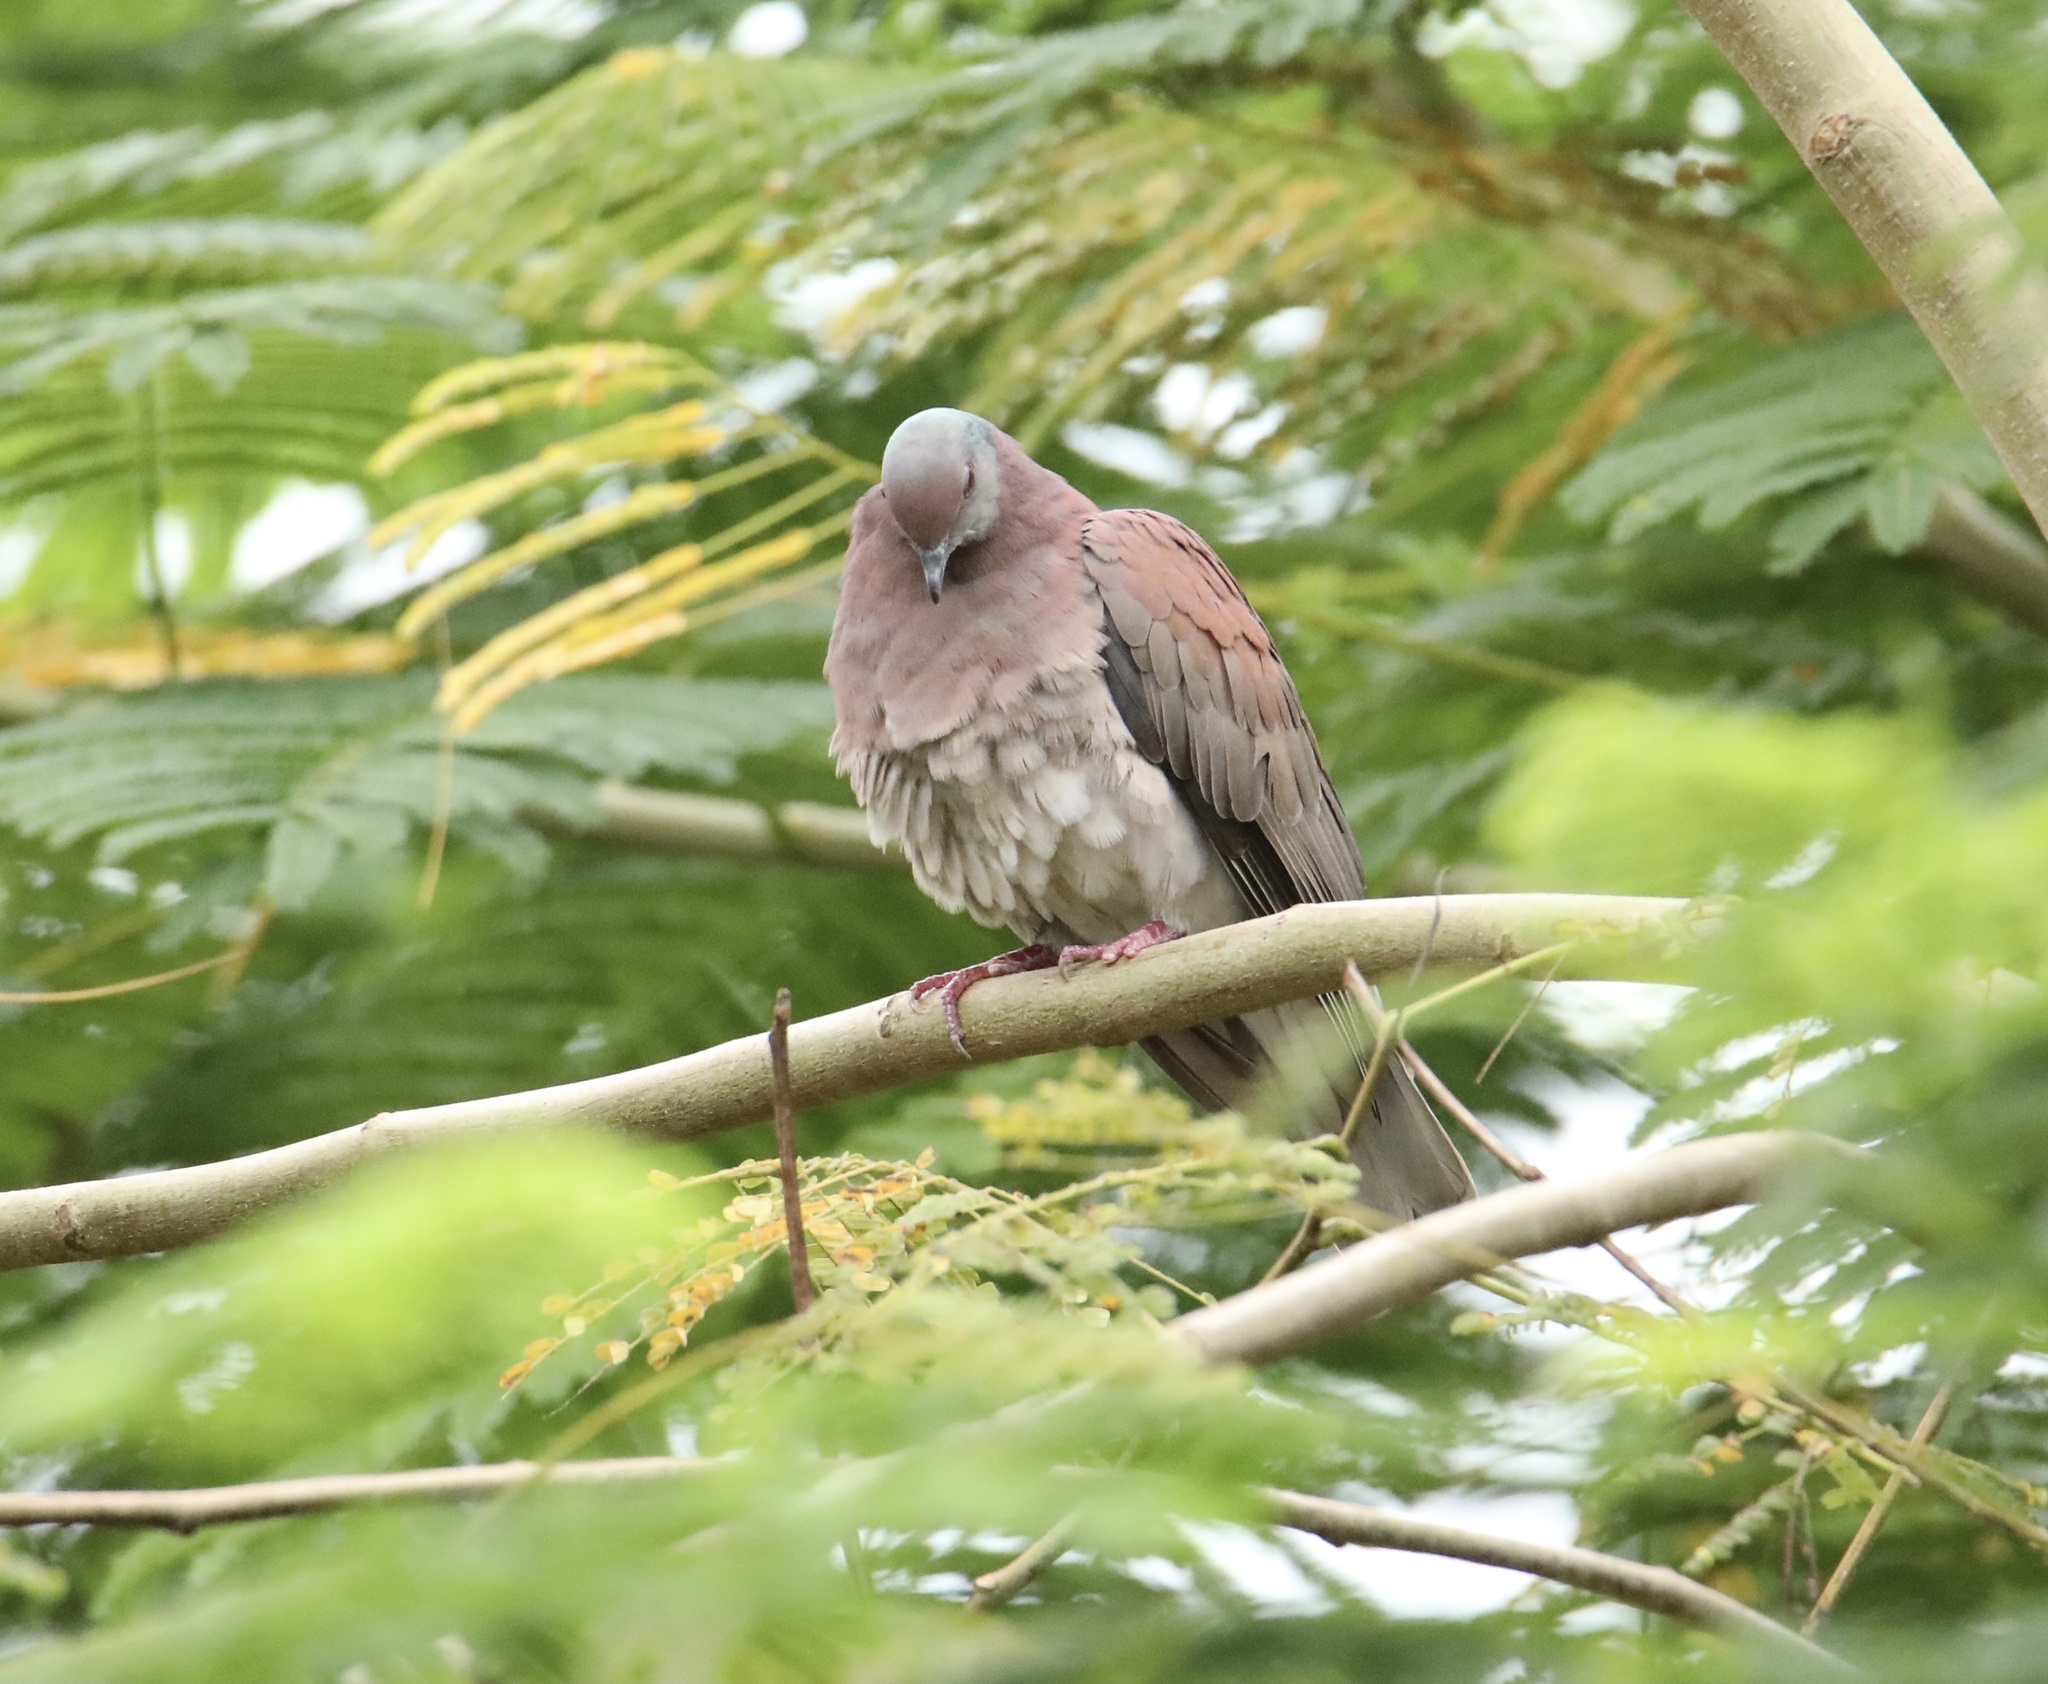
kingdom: Animalia
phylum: Chordata
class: Aves
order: Columbiformes
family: Columbidae
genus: Patagioenas
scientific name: Patagioenas cayennensis
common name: Pale-vented pigeon
